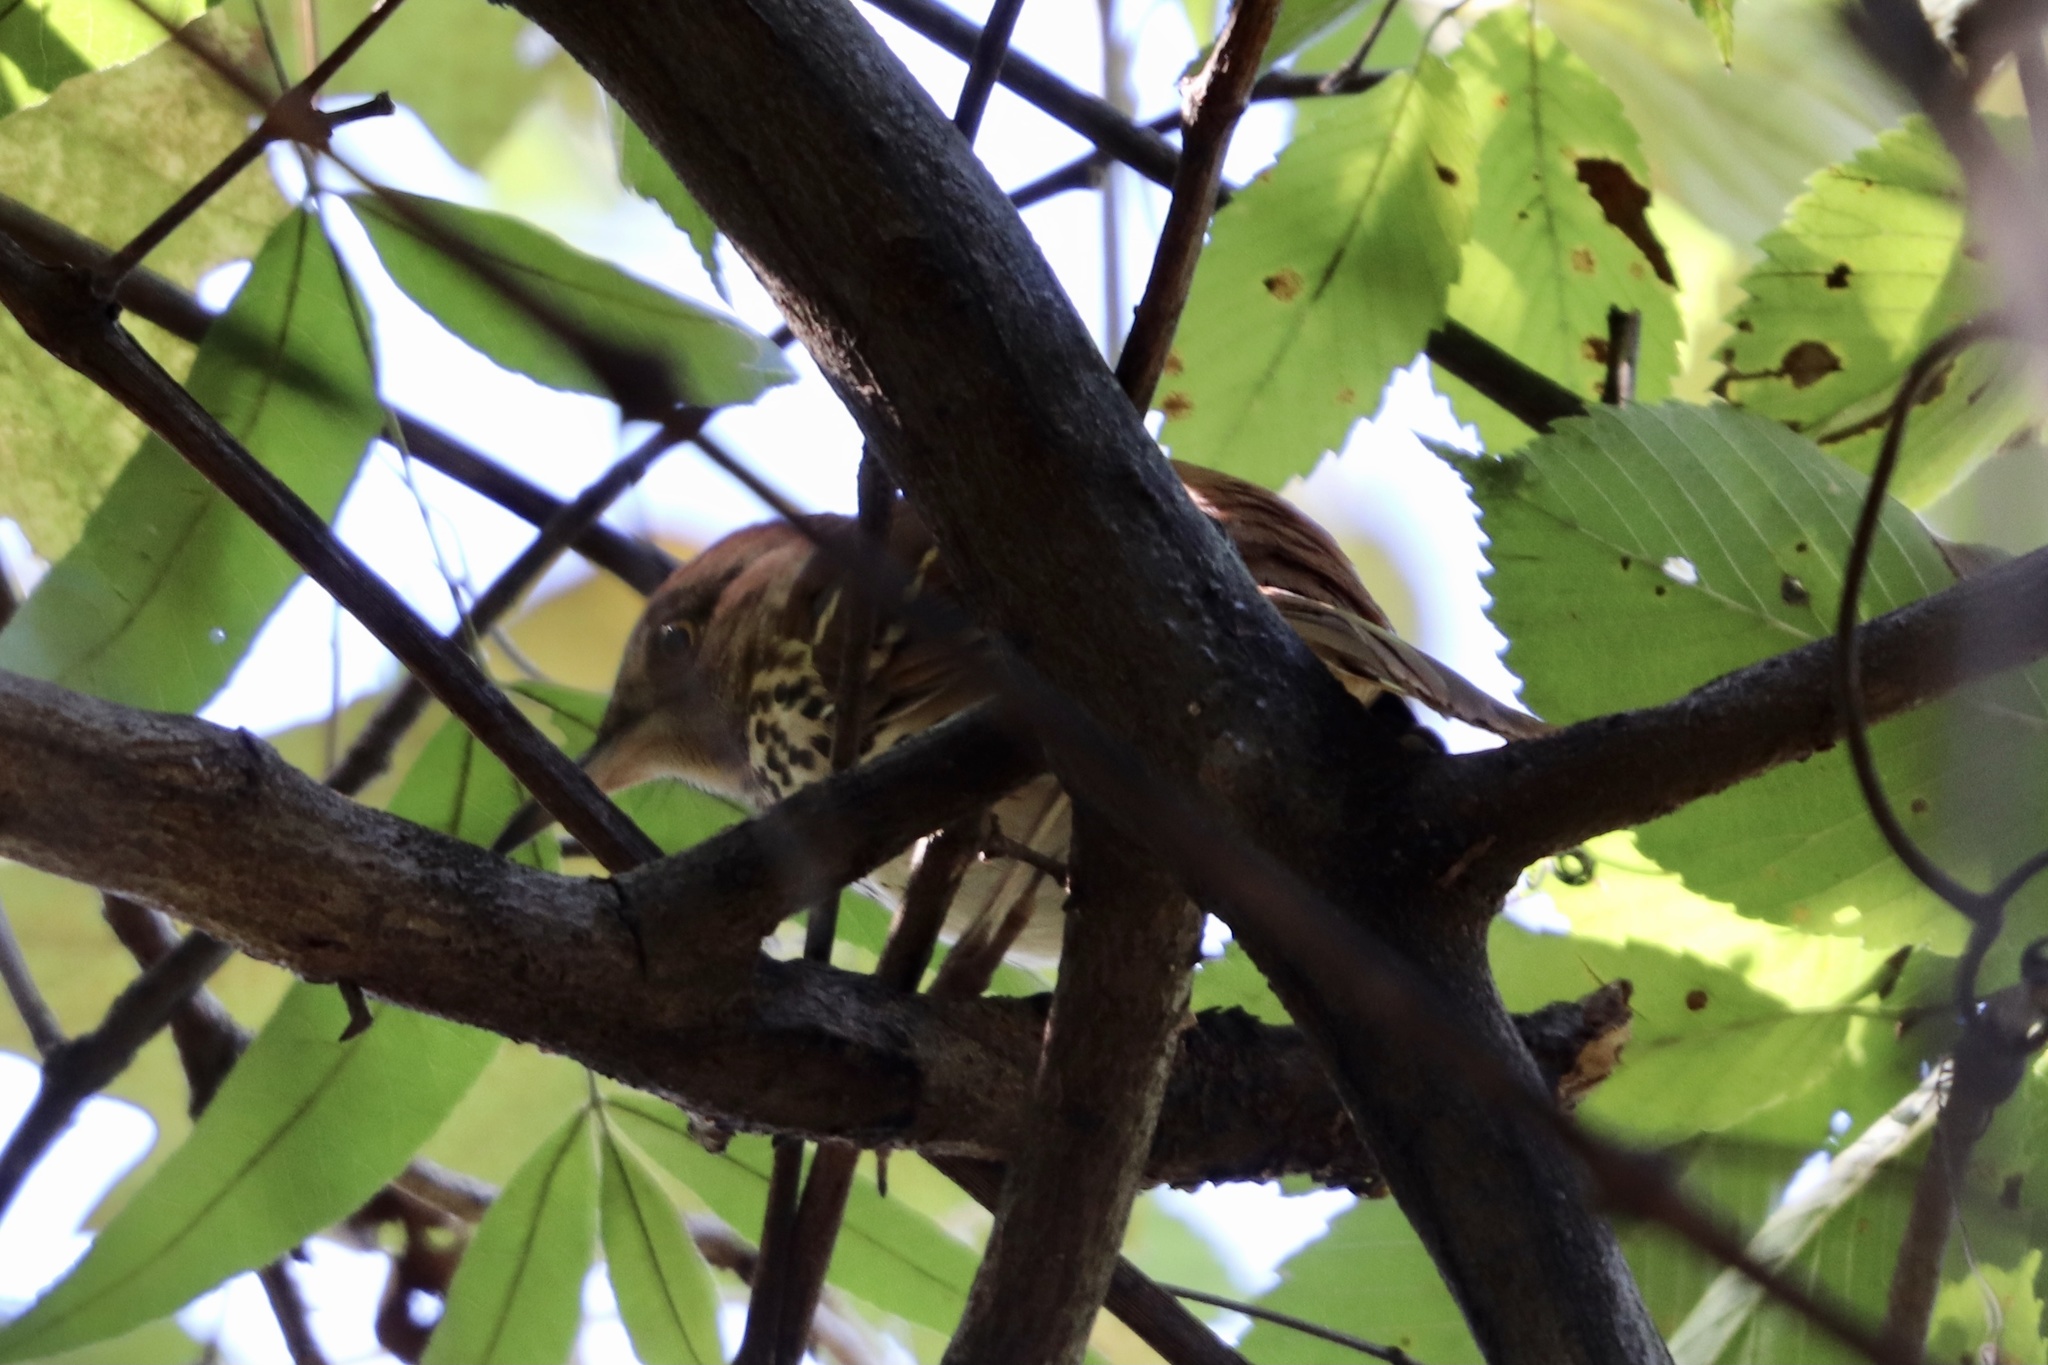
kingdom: Animalia
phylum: Chordata
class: Aves
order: Passeriformes
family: Mimidae
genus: Toxostoma
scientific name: Toxostoma rufum
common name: Brown thrasher
